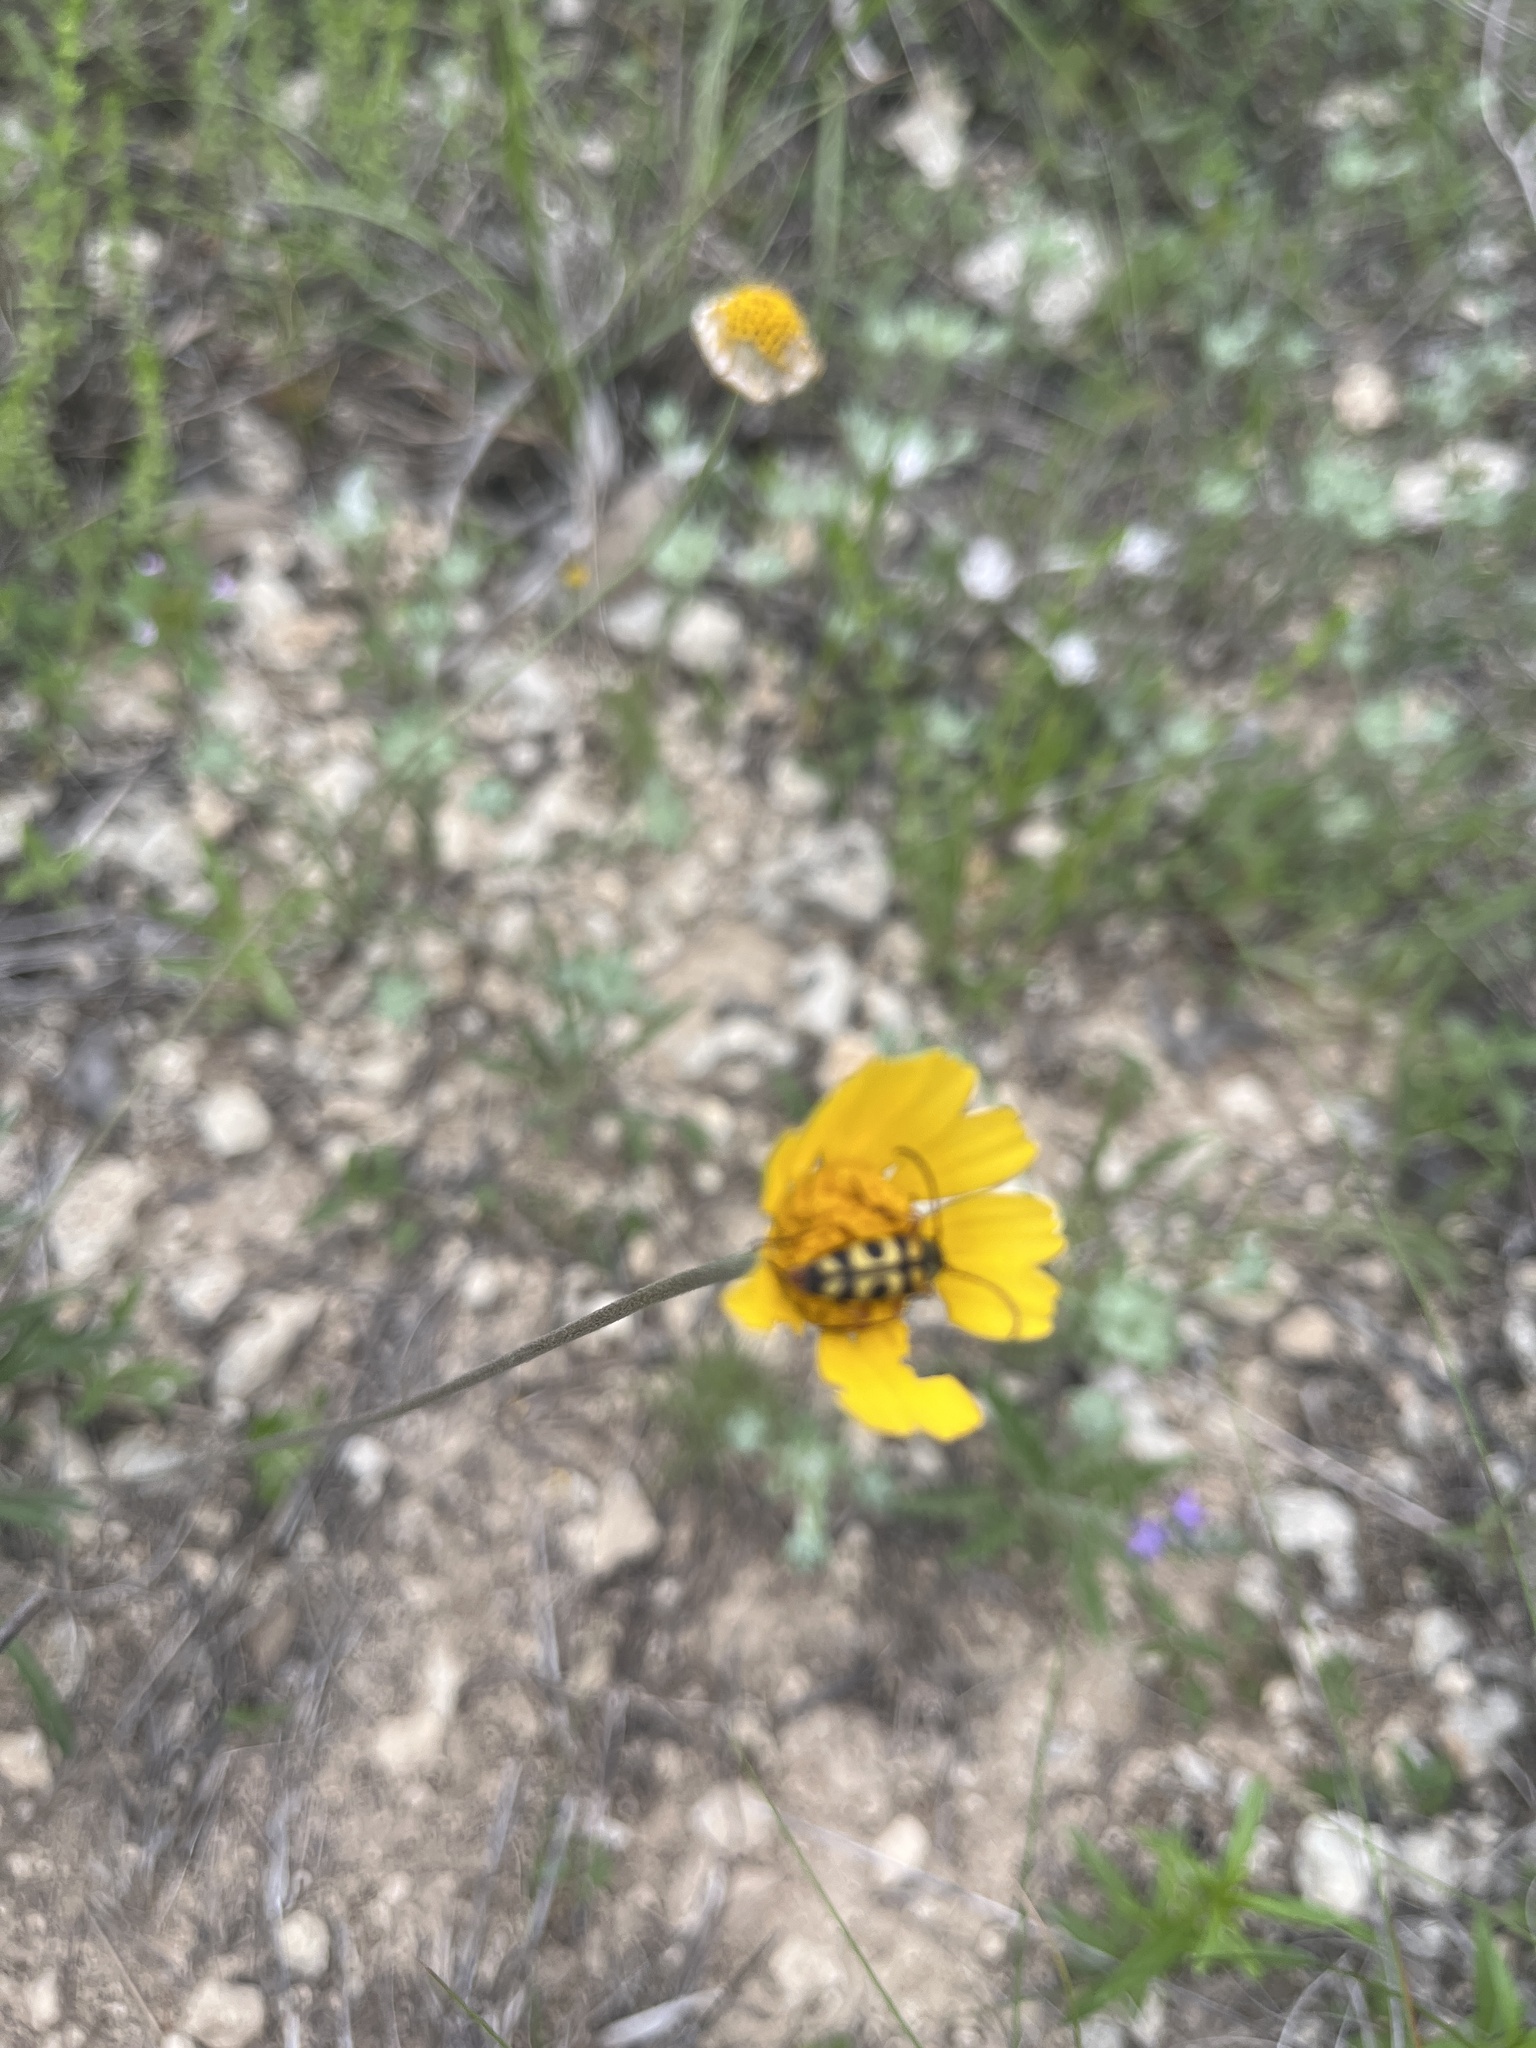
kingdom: Animalia
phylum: Arthropoda
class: Insecta
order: Coleoptera
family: Cerambycidae
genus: Typocerus
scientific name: Typocerus sinuatus
